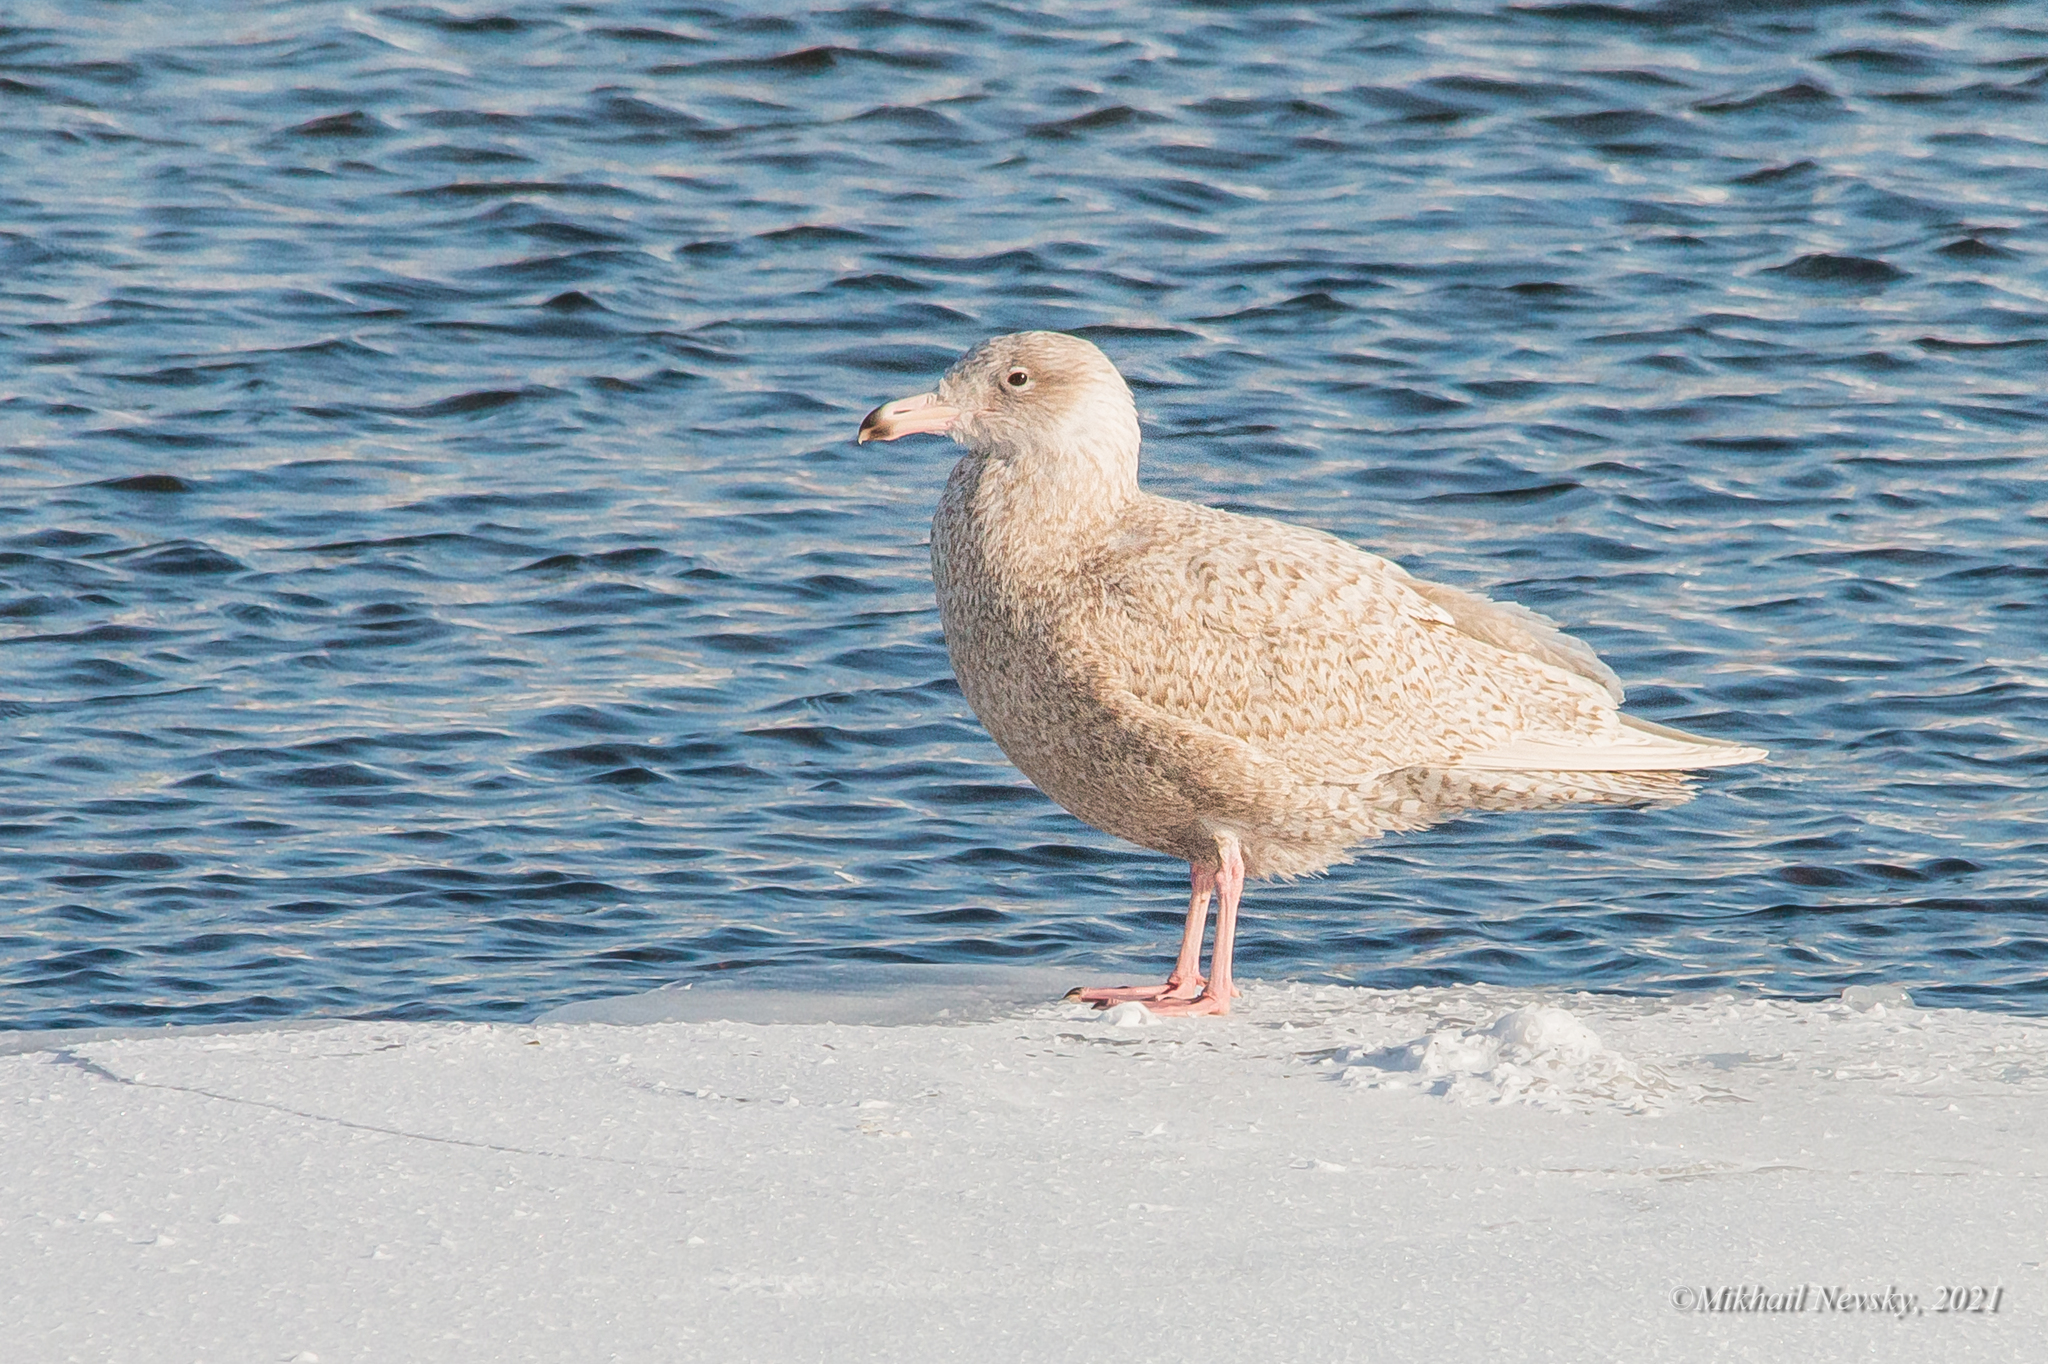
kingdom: Animalia
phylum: Chordata
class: Aves
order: Charadriiformes
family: Laridae
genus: Larus
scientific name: Larus hyperboreus
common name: Glaucous gull
